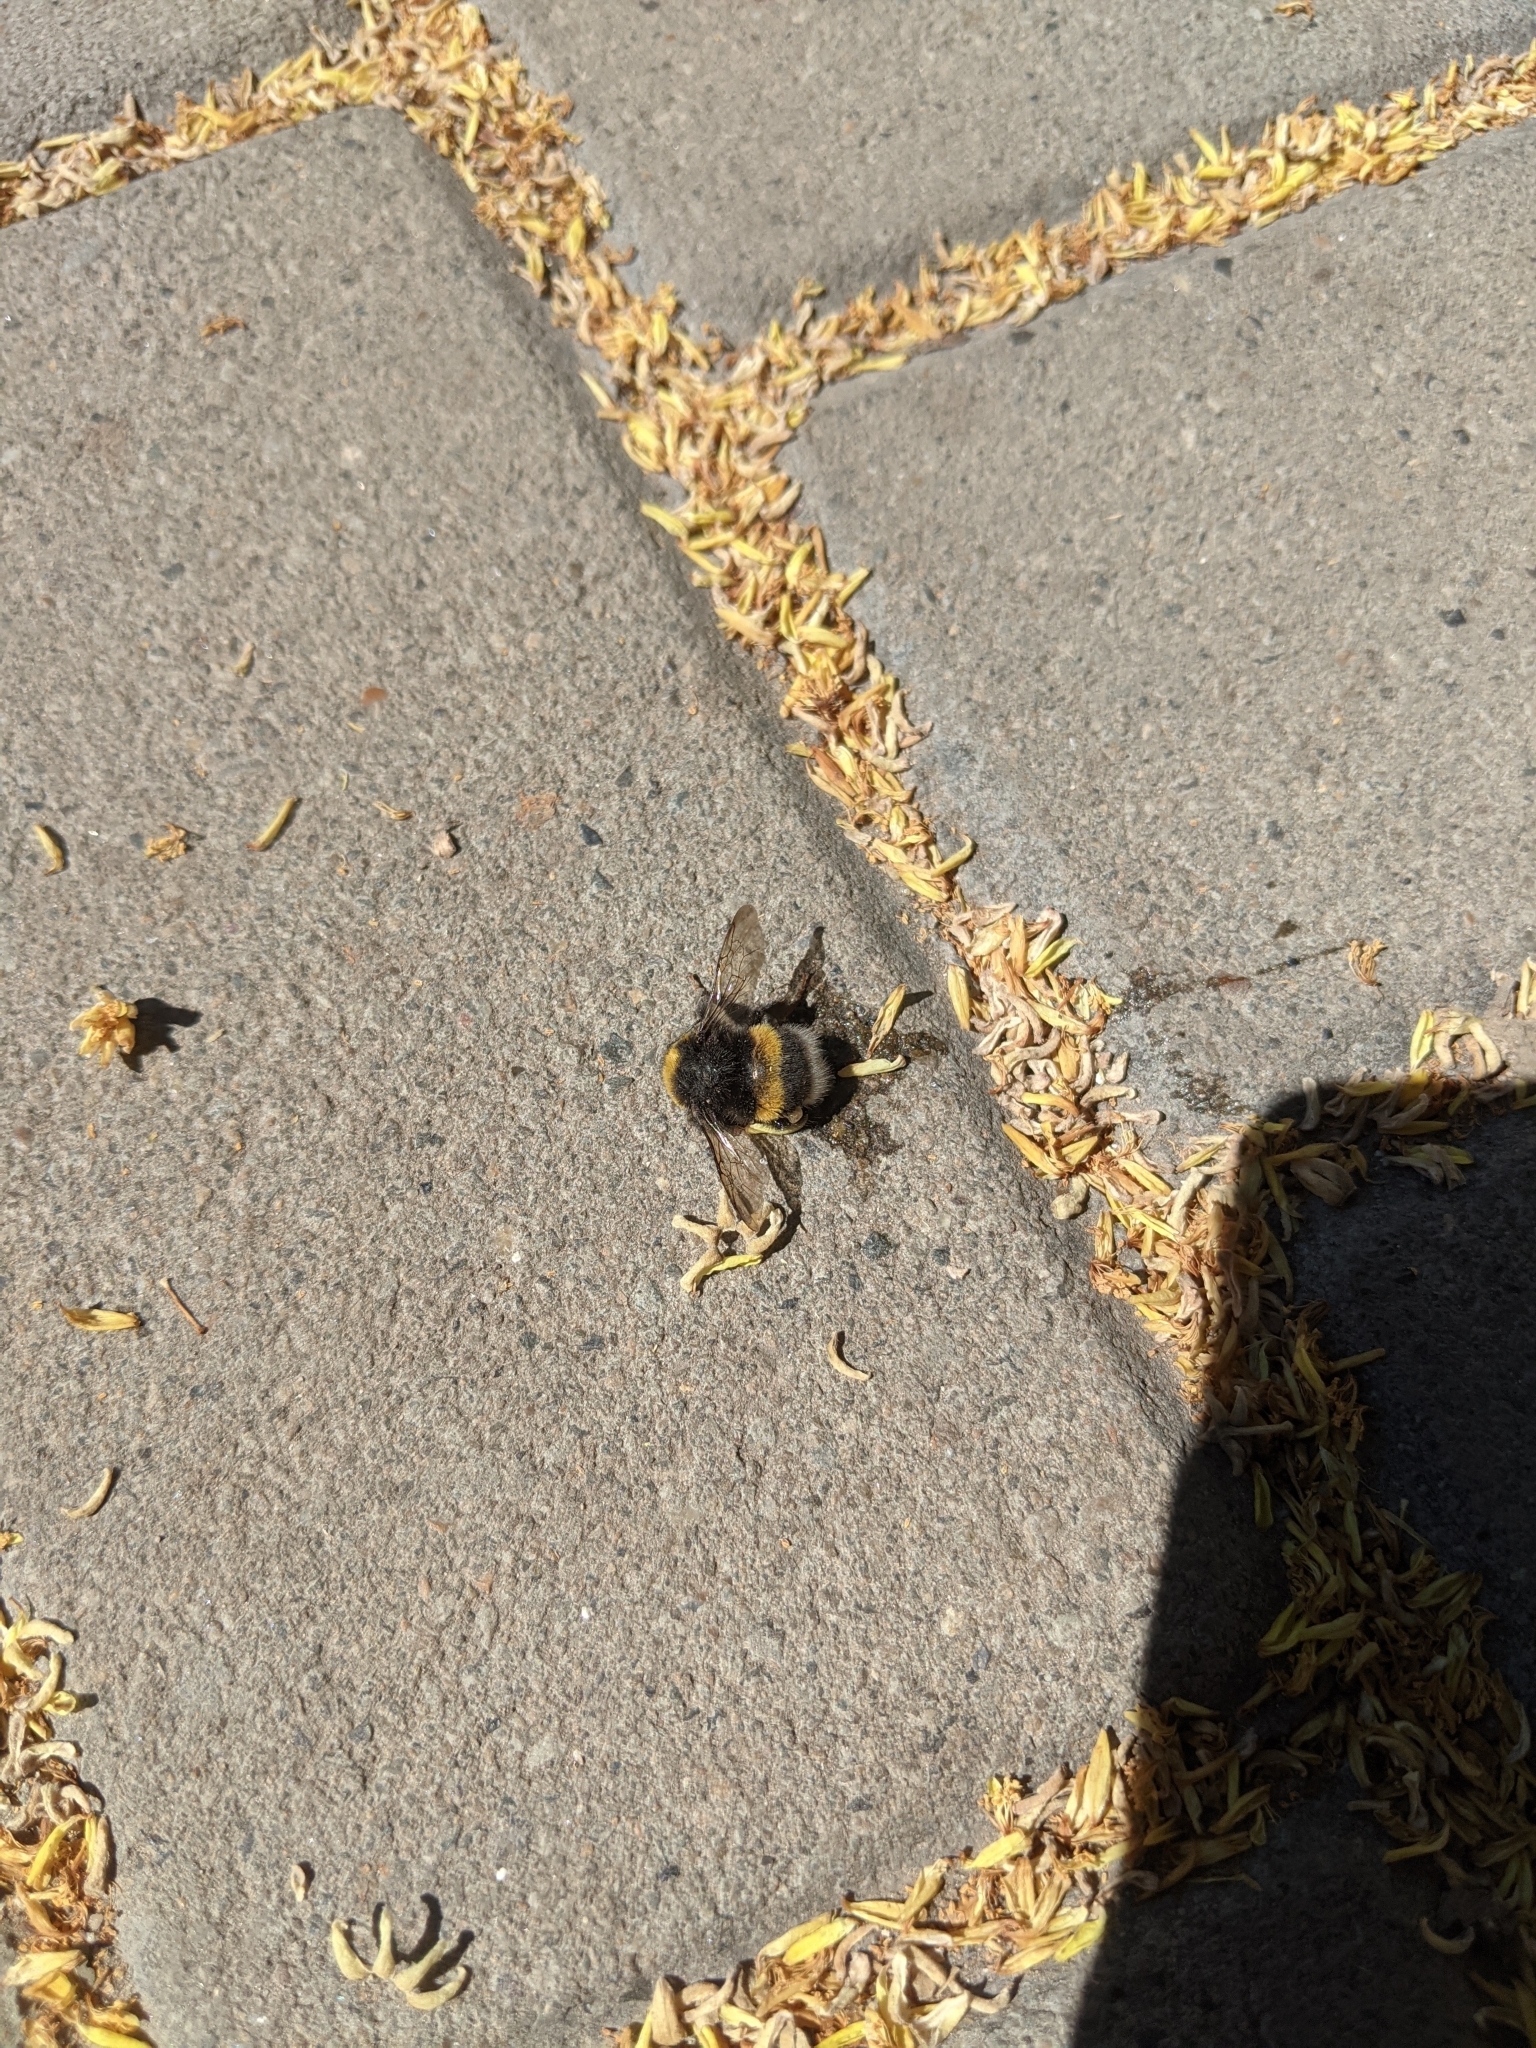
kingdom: Animalia
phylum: Arthropoda
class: Insecta
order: Hymenoptera
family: Apidae
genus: Bombus
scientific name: Bombus
